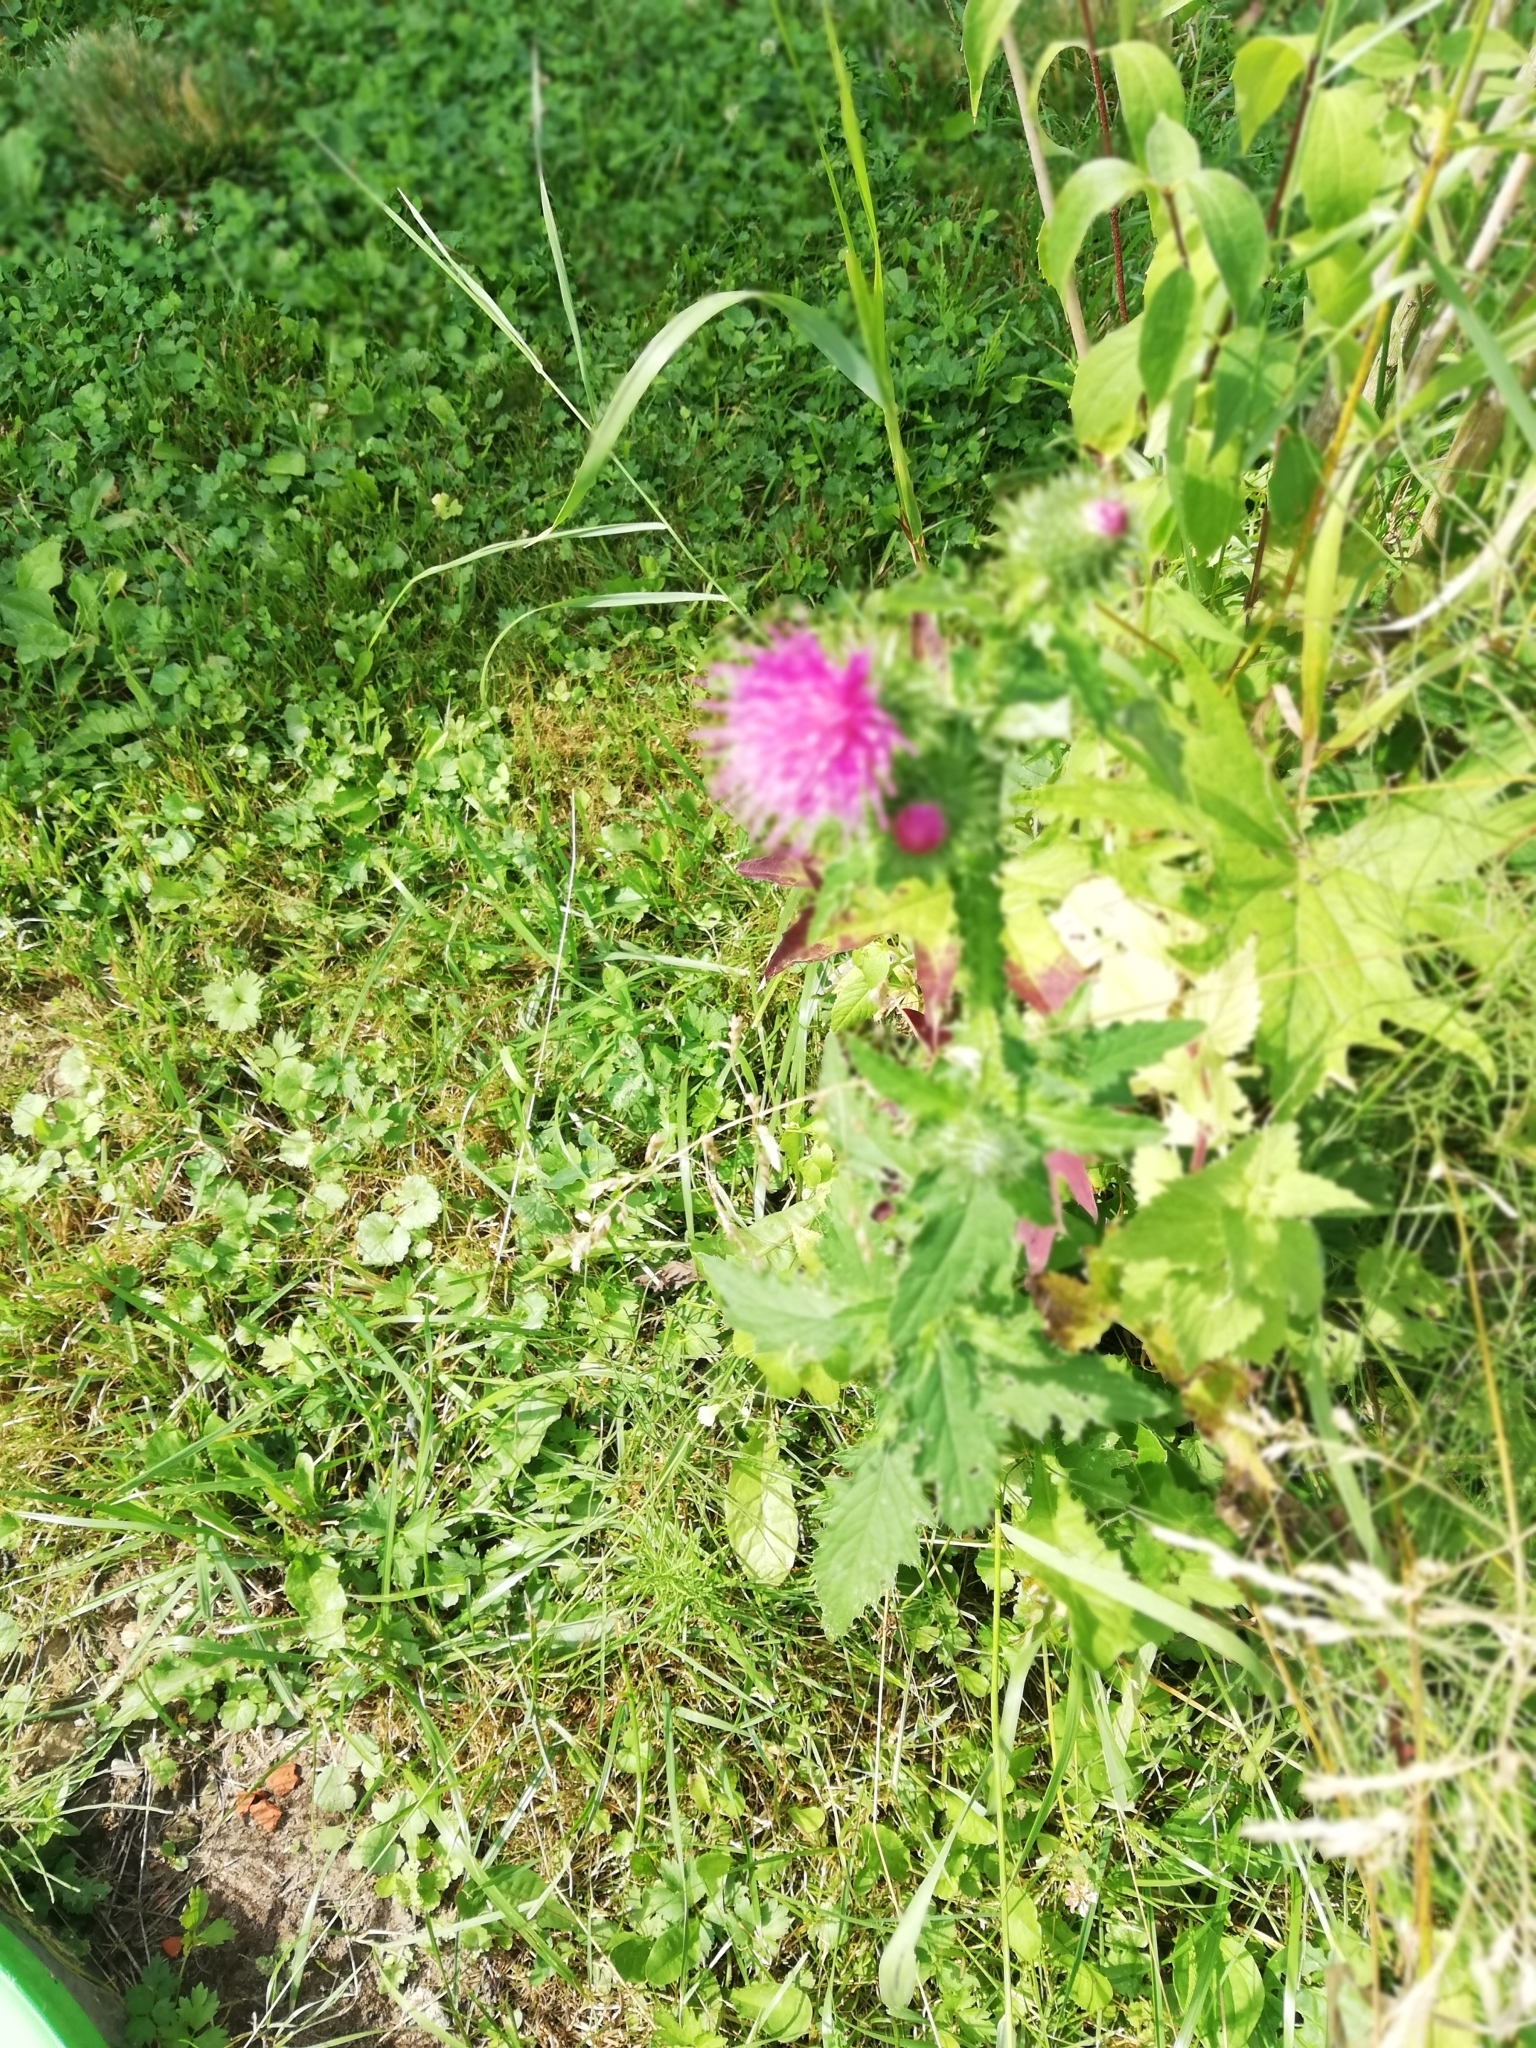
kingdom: Plantae
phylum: Tracheophyta
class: Magnoliopsida
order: Asterales
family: Asteraceae
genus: Carduus
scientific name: Carduus crispus
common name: Welted thistle
